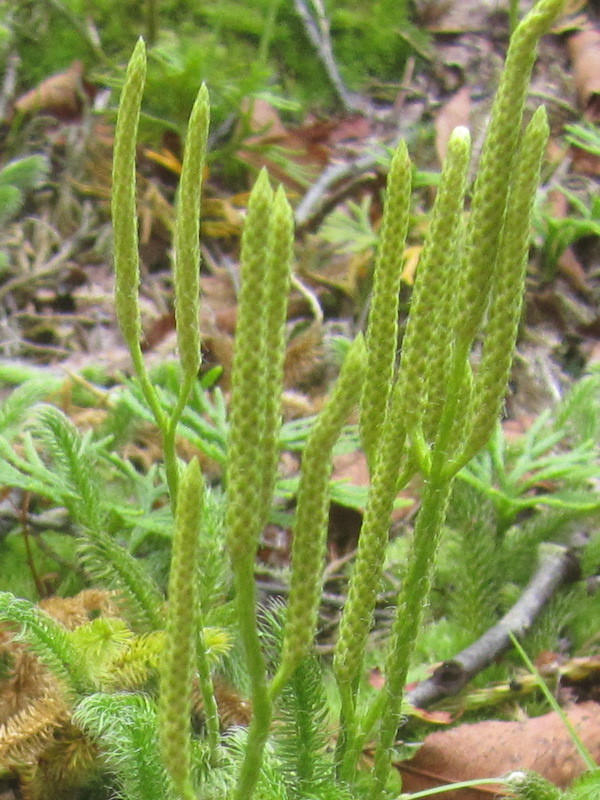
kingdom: Plantae
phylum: Tracheophyta
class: Lycopodiopsida
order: Lycopodiales
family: Lycopodiaceae
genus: Lycopodium
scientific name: Lycopodium clavatum
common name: Stag's-horn clubmoss
